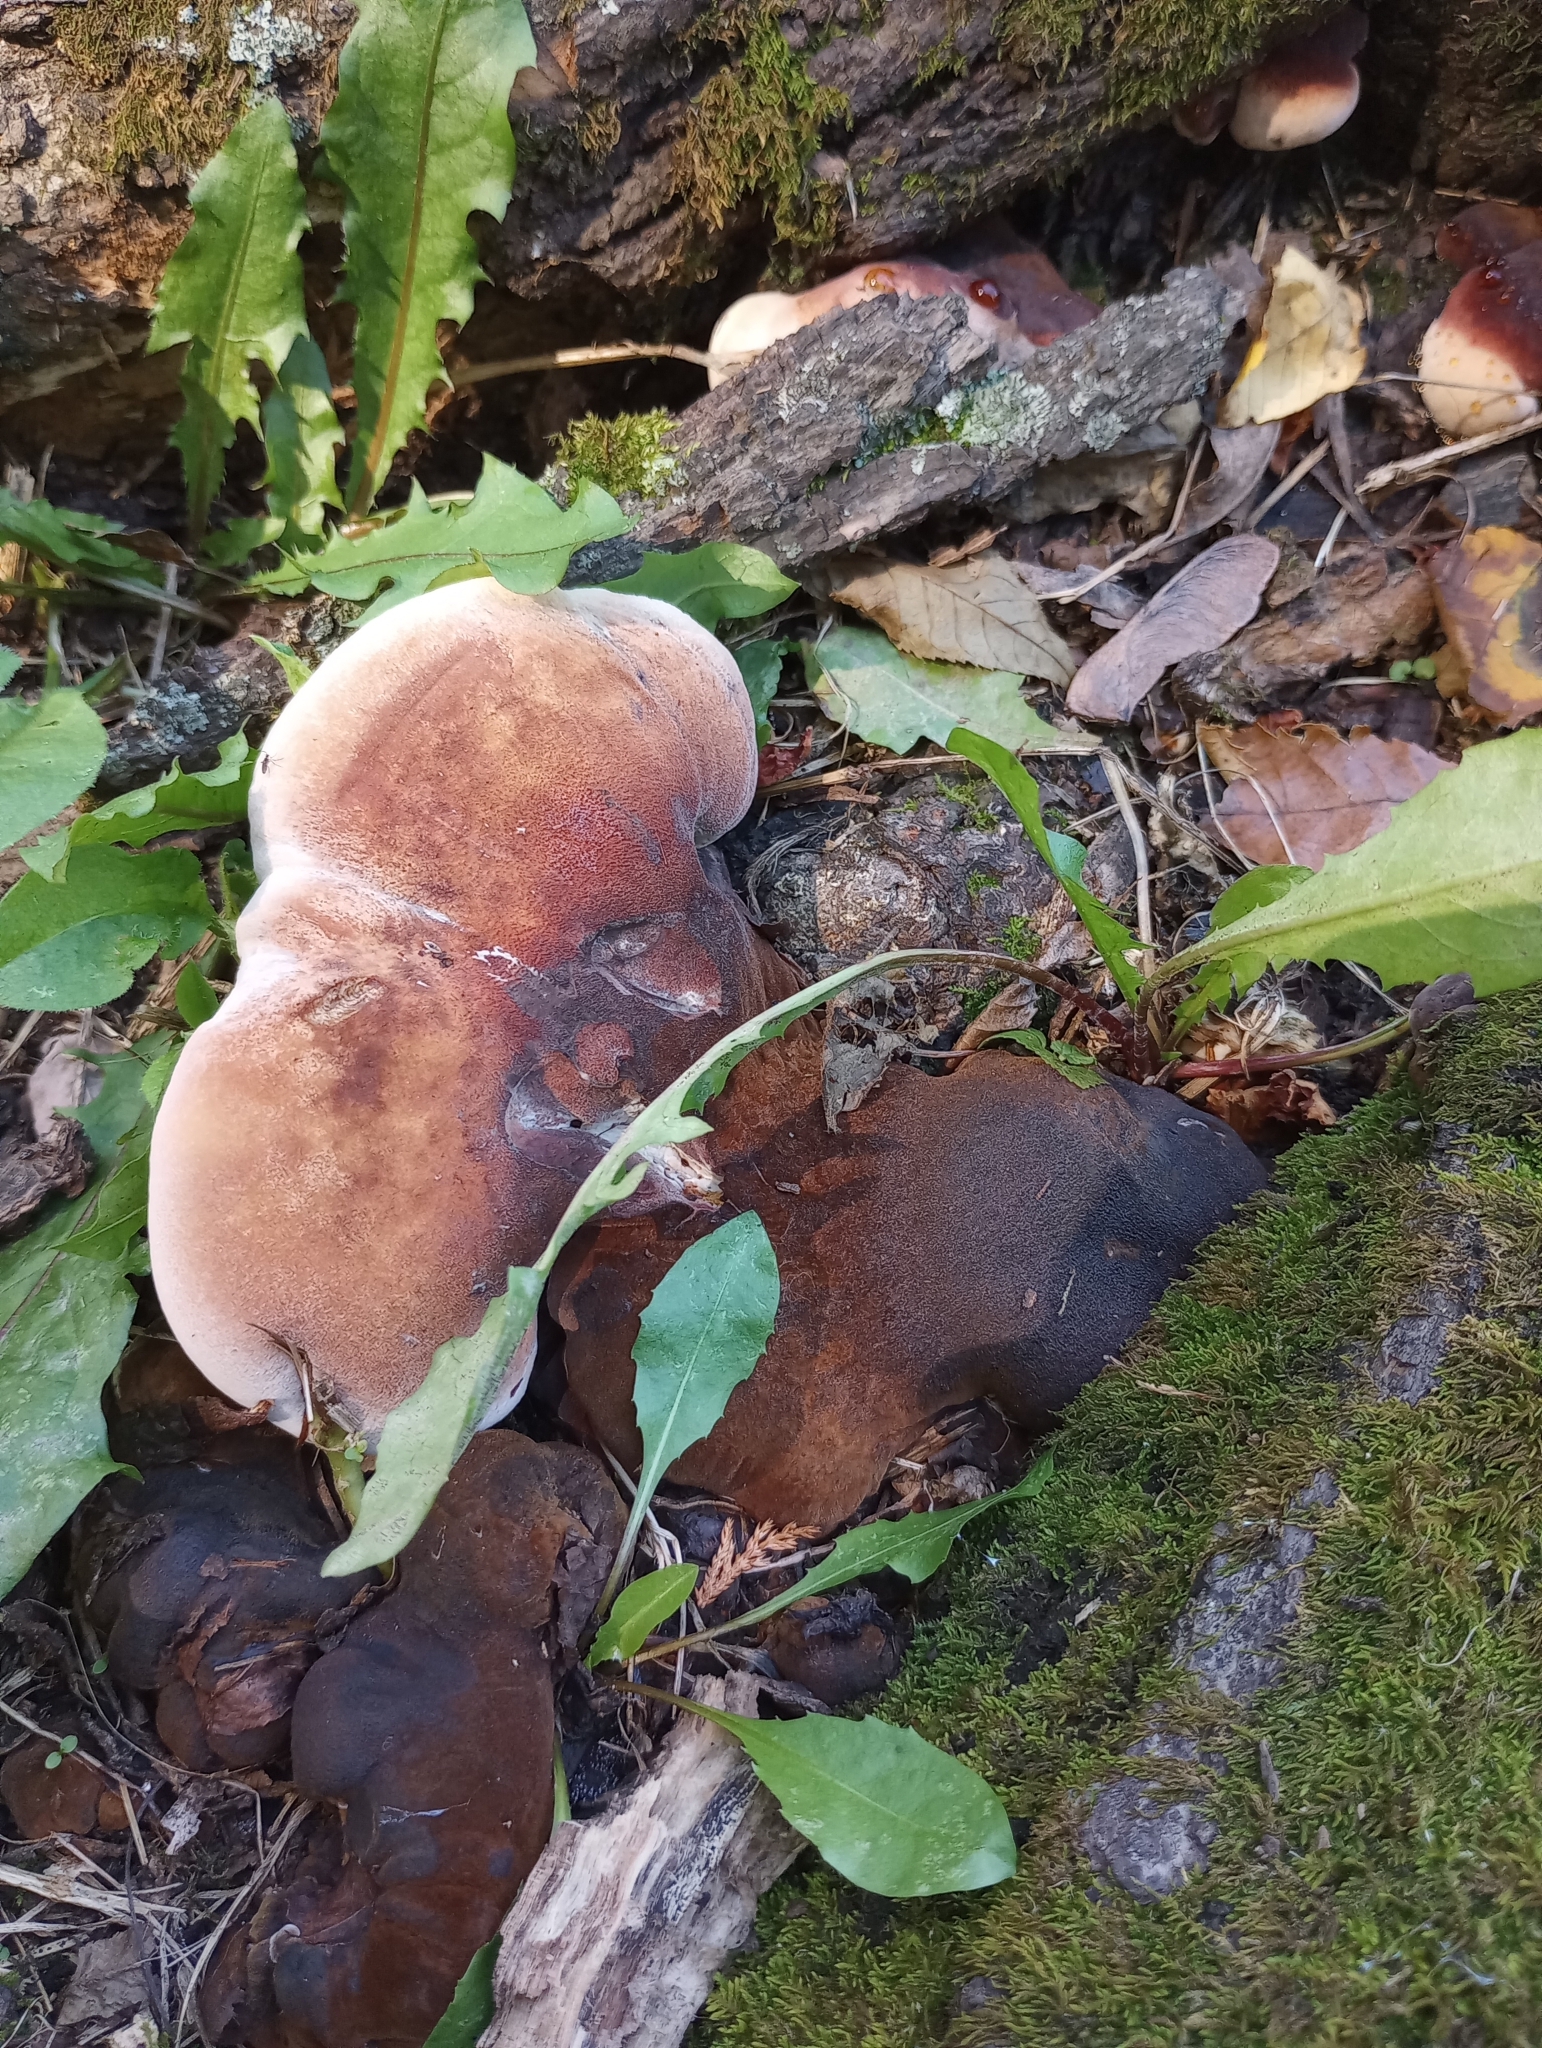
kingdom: Fungi
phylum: Basidiomycota
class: Agaricomycetes
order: Polyporales
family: Ischnodermataceae
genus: Ischnoderma
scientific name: Ischnoderma resinosum
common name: Resinous polypore
